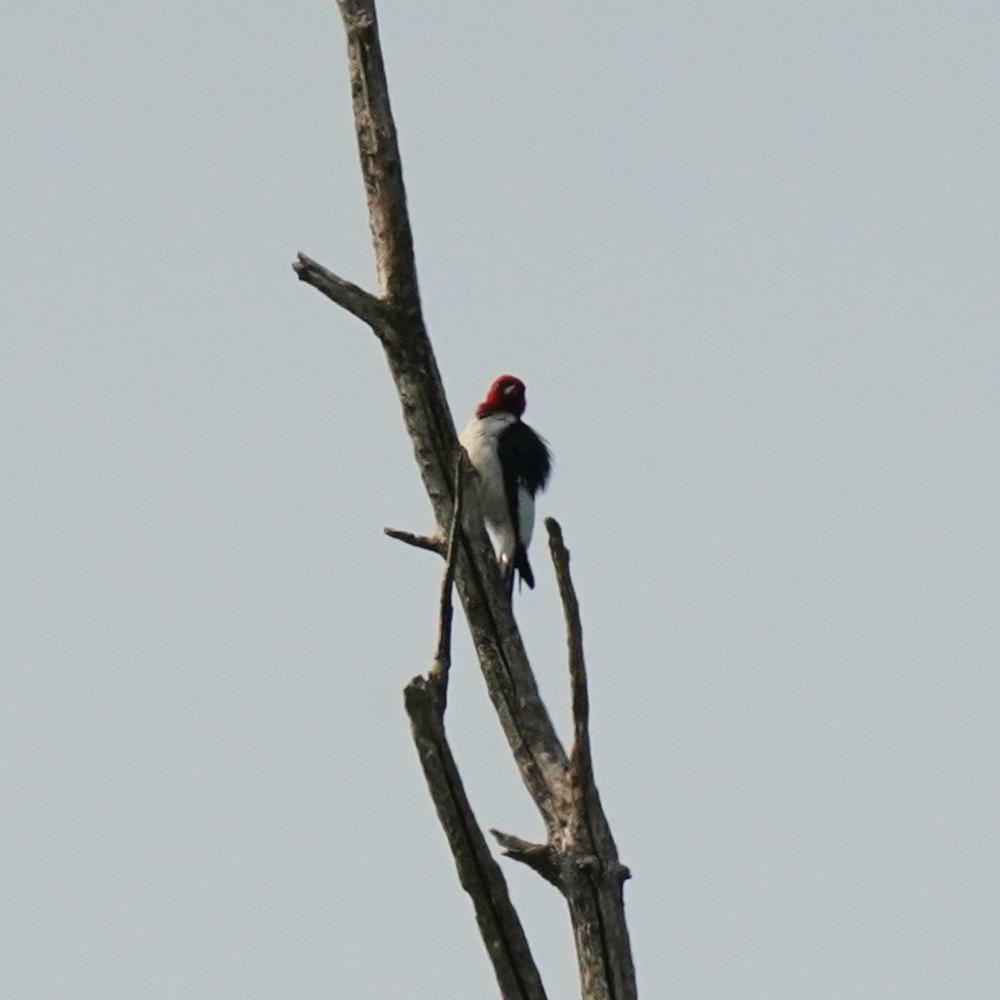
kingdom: Animalia
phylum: Chordata
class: Aves
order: Piciformes
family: Picidae
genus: Melanerpes
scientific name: Melanerpes erythrocephalus
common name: Red-headed woodpecker
